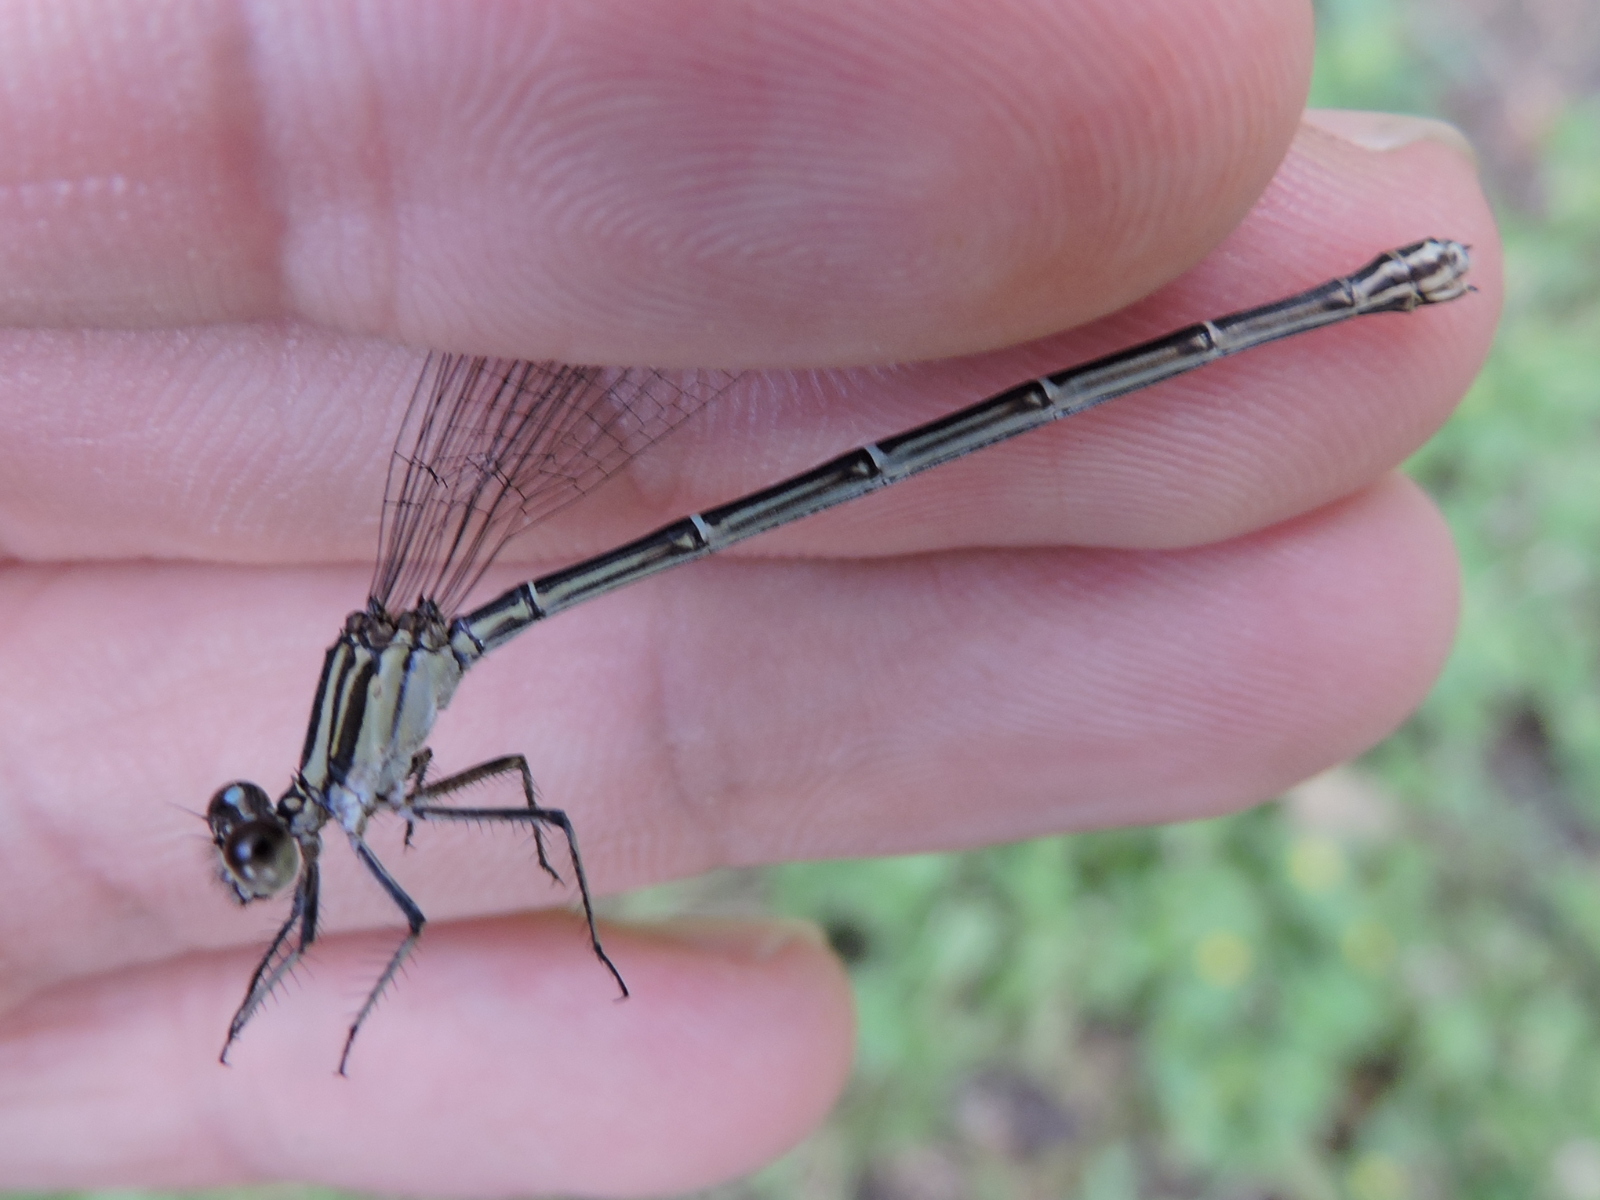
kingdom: Animalia
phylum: Arthropoda
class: Insecta
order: Odonata
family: Coenagrionidae
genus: Argia
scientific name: Argia translata
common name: Dusky dancer
